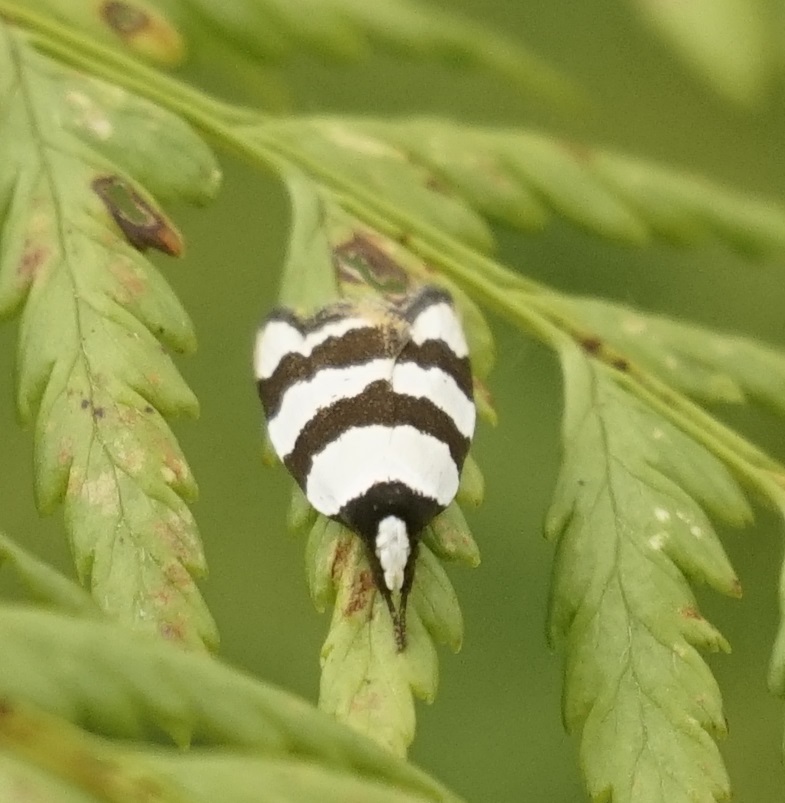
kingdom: Animalia
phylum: Arthropoda
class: Insecta
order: Lepidoptera
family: Oecophoridae
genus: Zonopetala
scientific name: Zonopetala clerota
